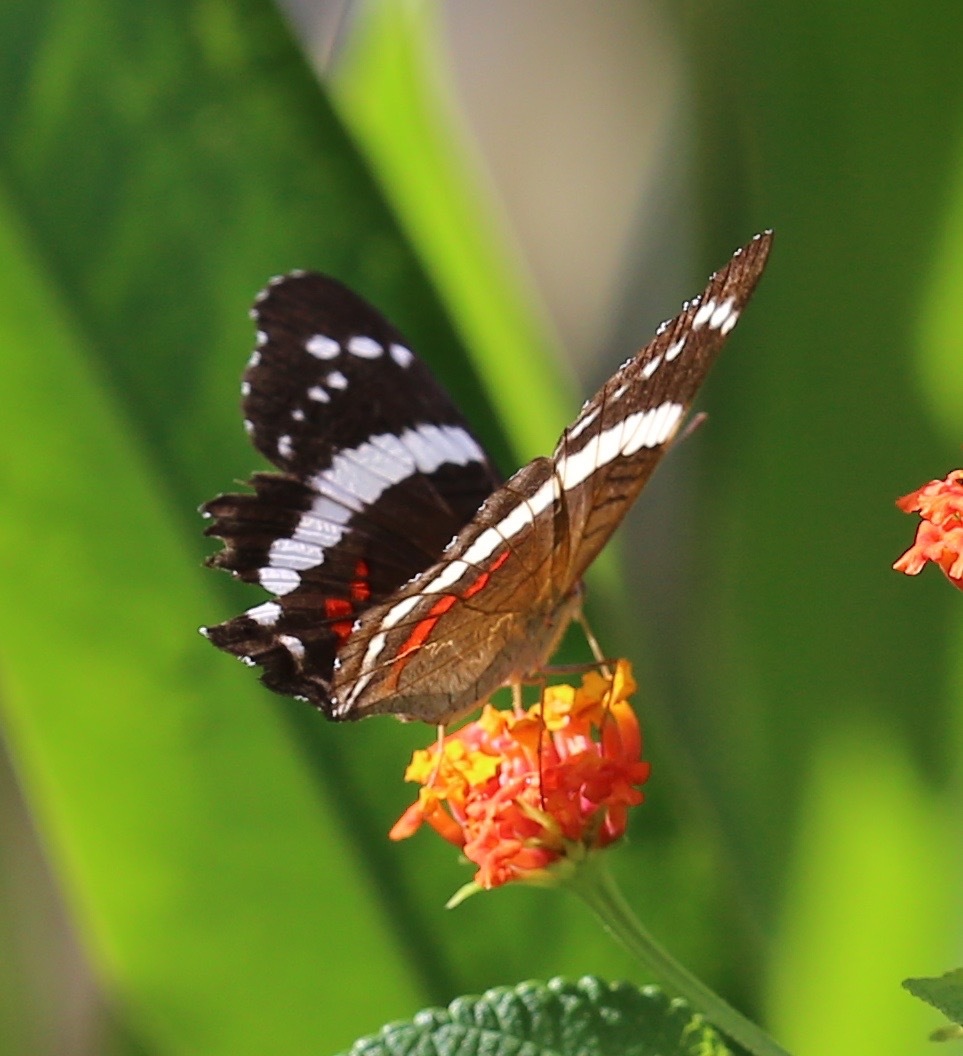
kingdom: Animalia
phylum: Arthropoda
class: Insecta
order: Lepidoptera
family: Nymphalidae
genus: Anartia
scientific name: Anartia fatima
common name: Banded peacock
